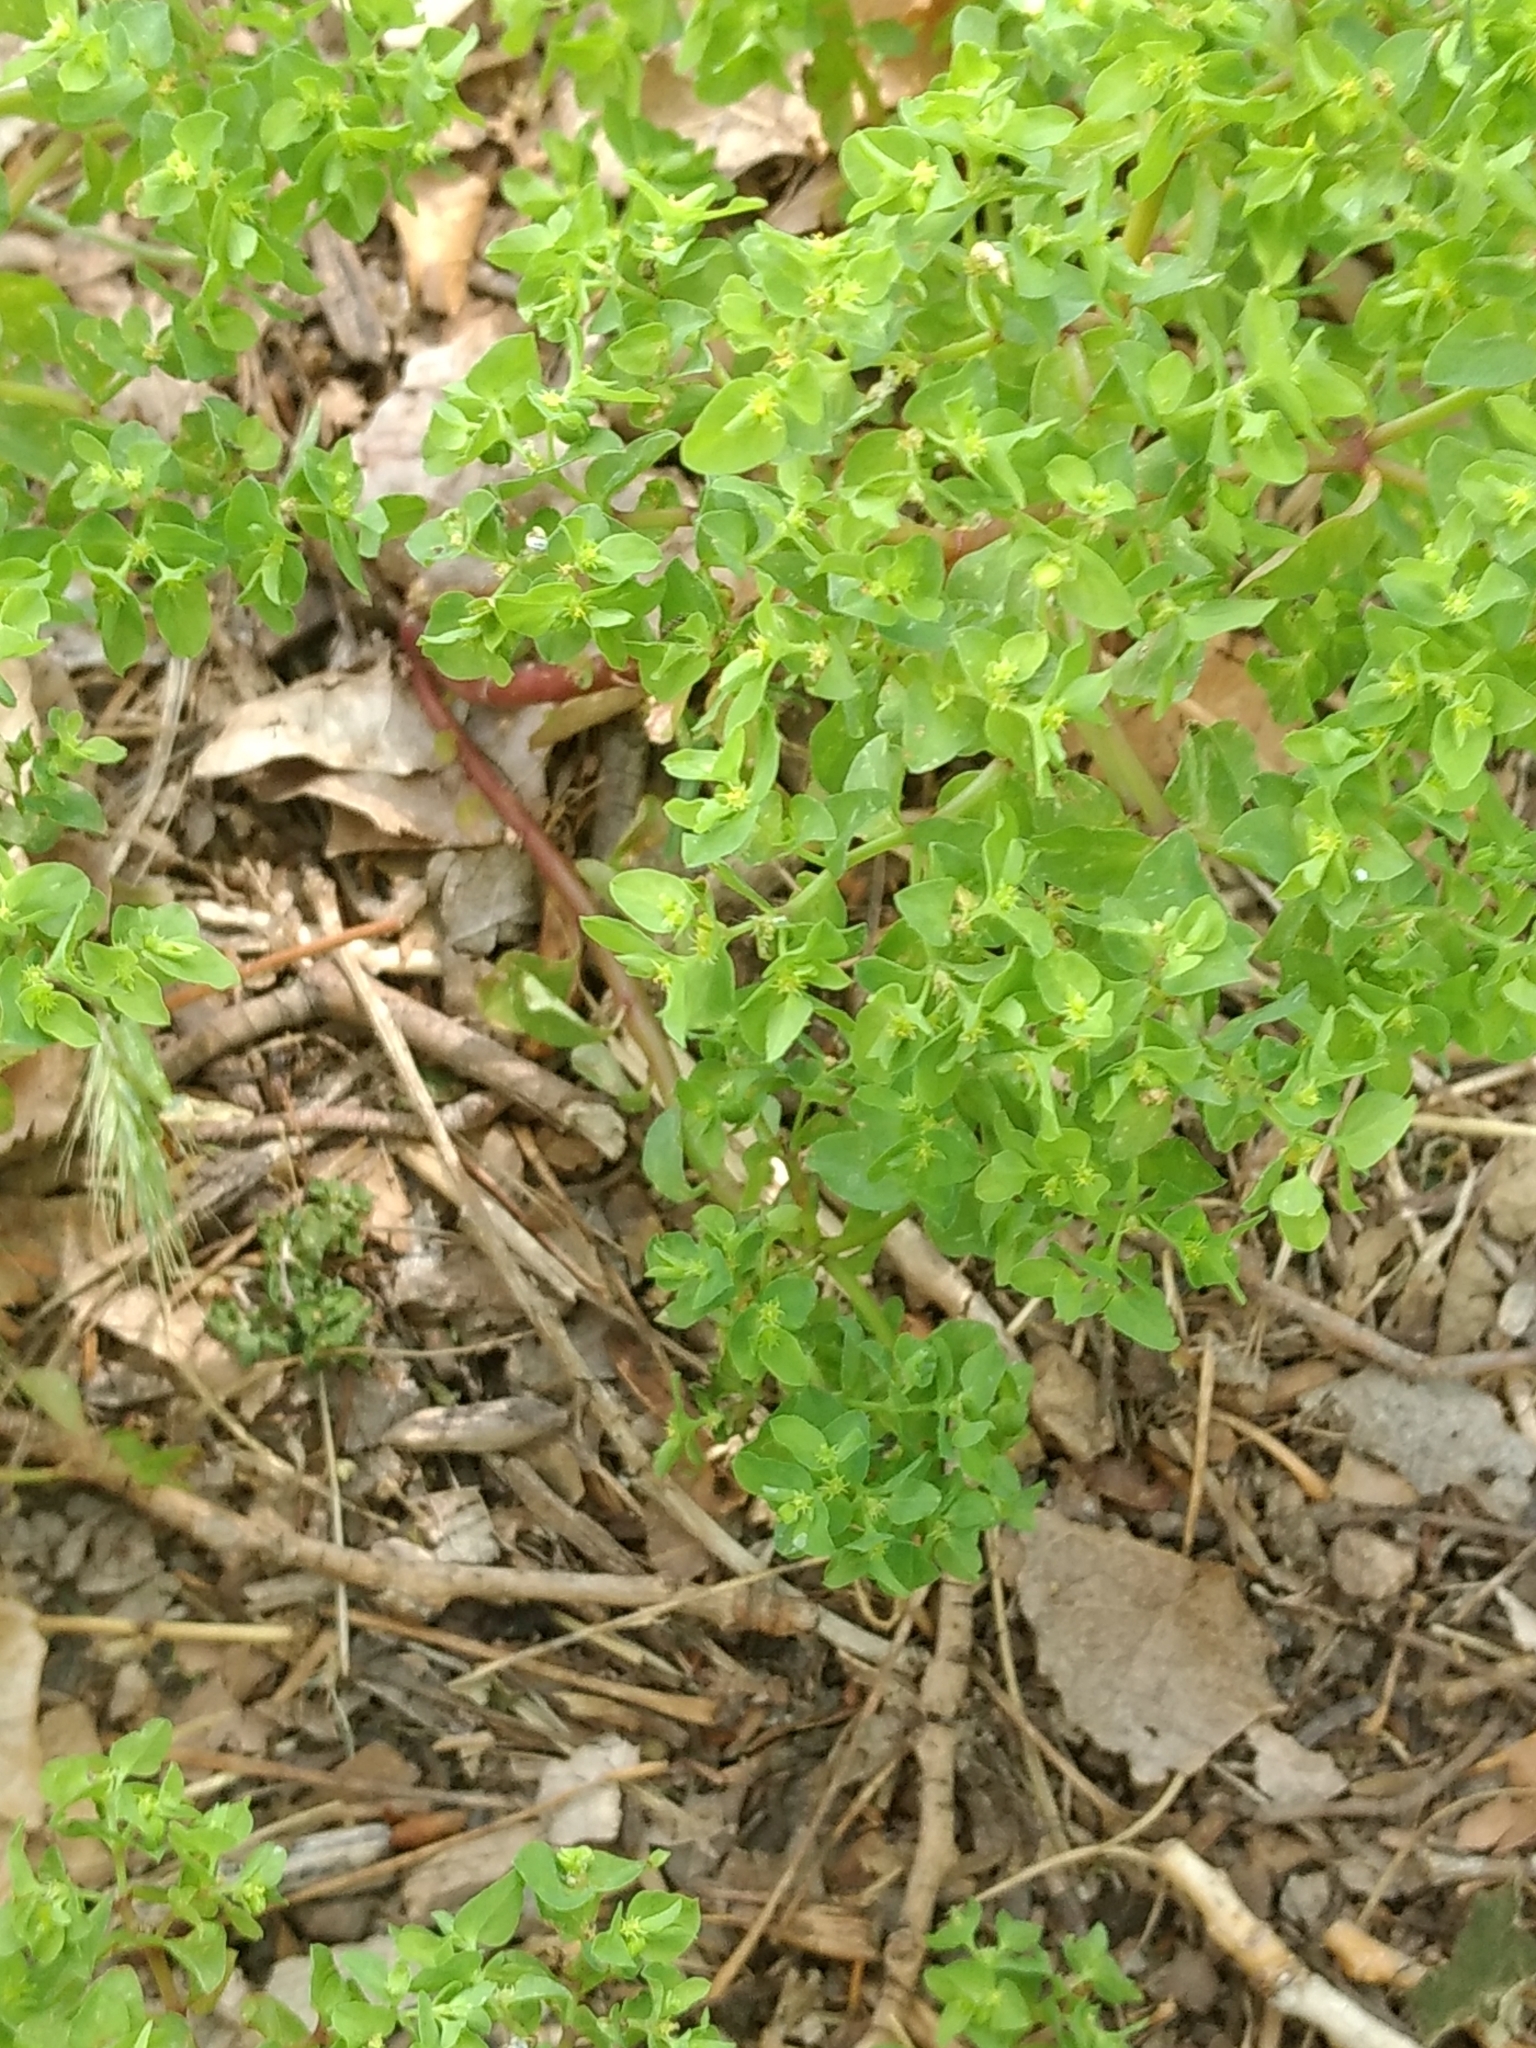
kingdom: Plantae
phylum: Tracheophyta
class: Magnoliopsida
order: Malpighiales
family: Euphorbiaceae
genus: Euphorbia
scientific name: Euphorbia peplus
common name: Petty spurge
